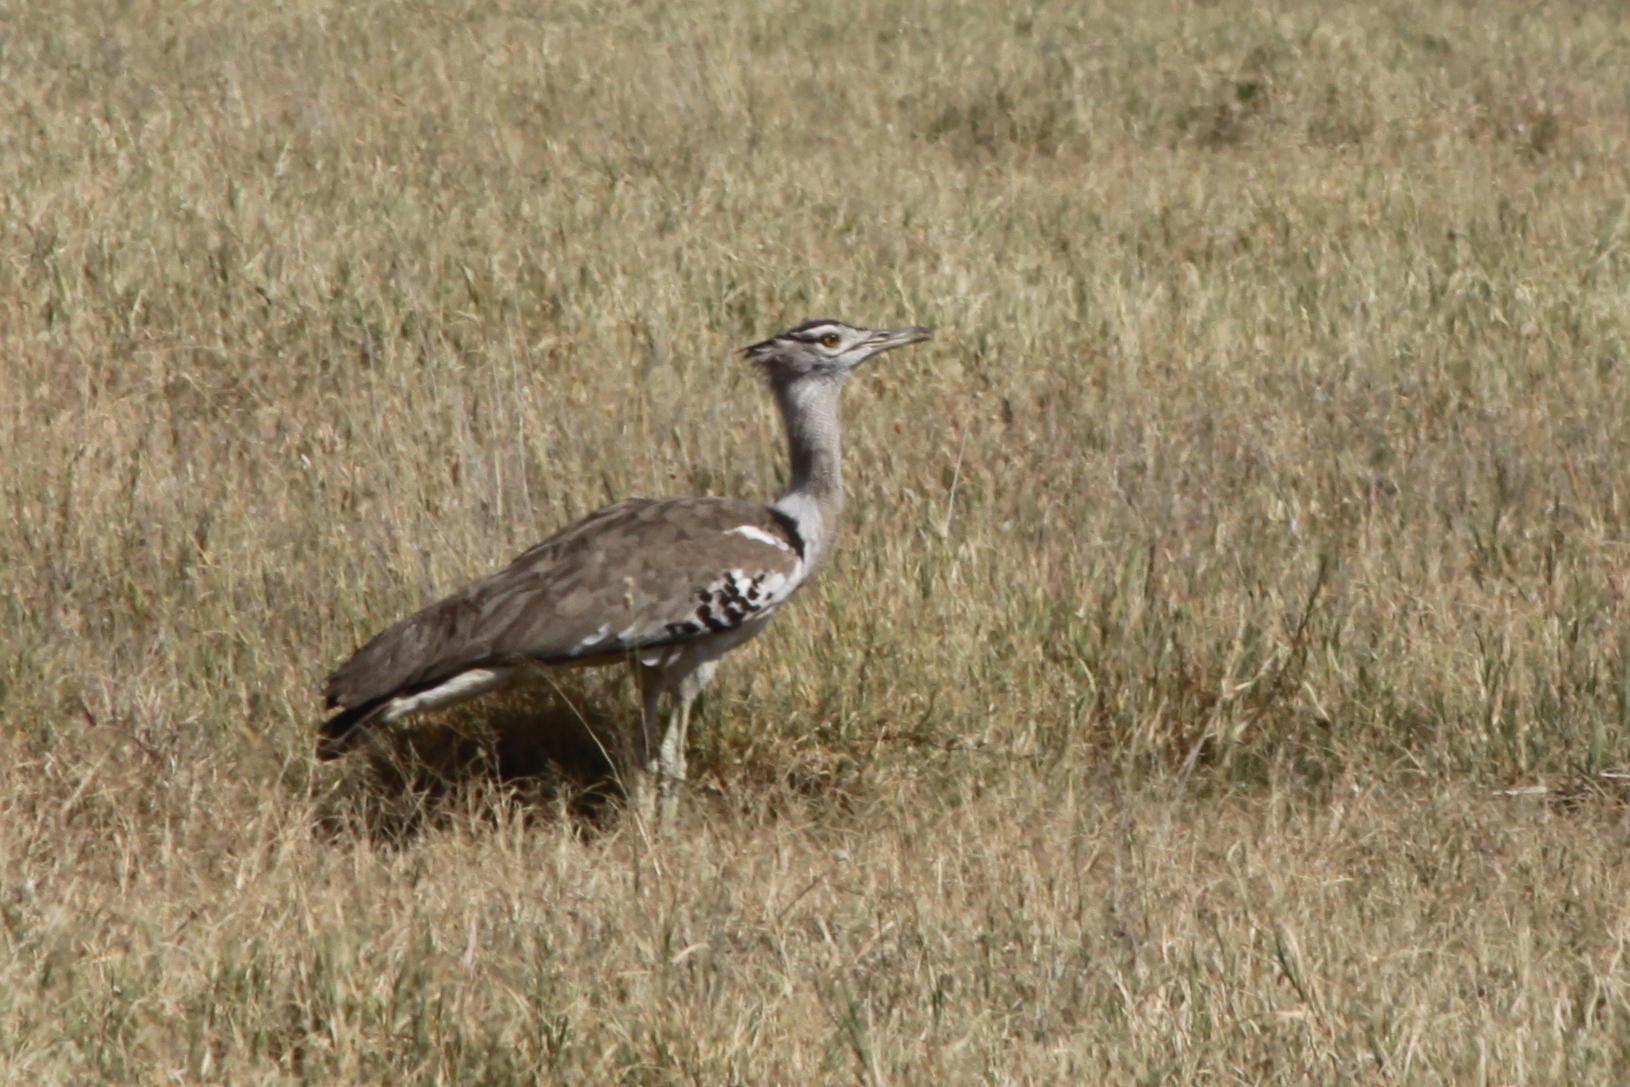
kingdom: Animalia
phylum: Chordata
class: Aves
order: Otidiformes
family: Otididae
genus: Ardeotis
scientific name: Ardeotis kori
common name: Kori bustard
